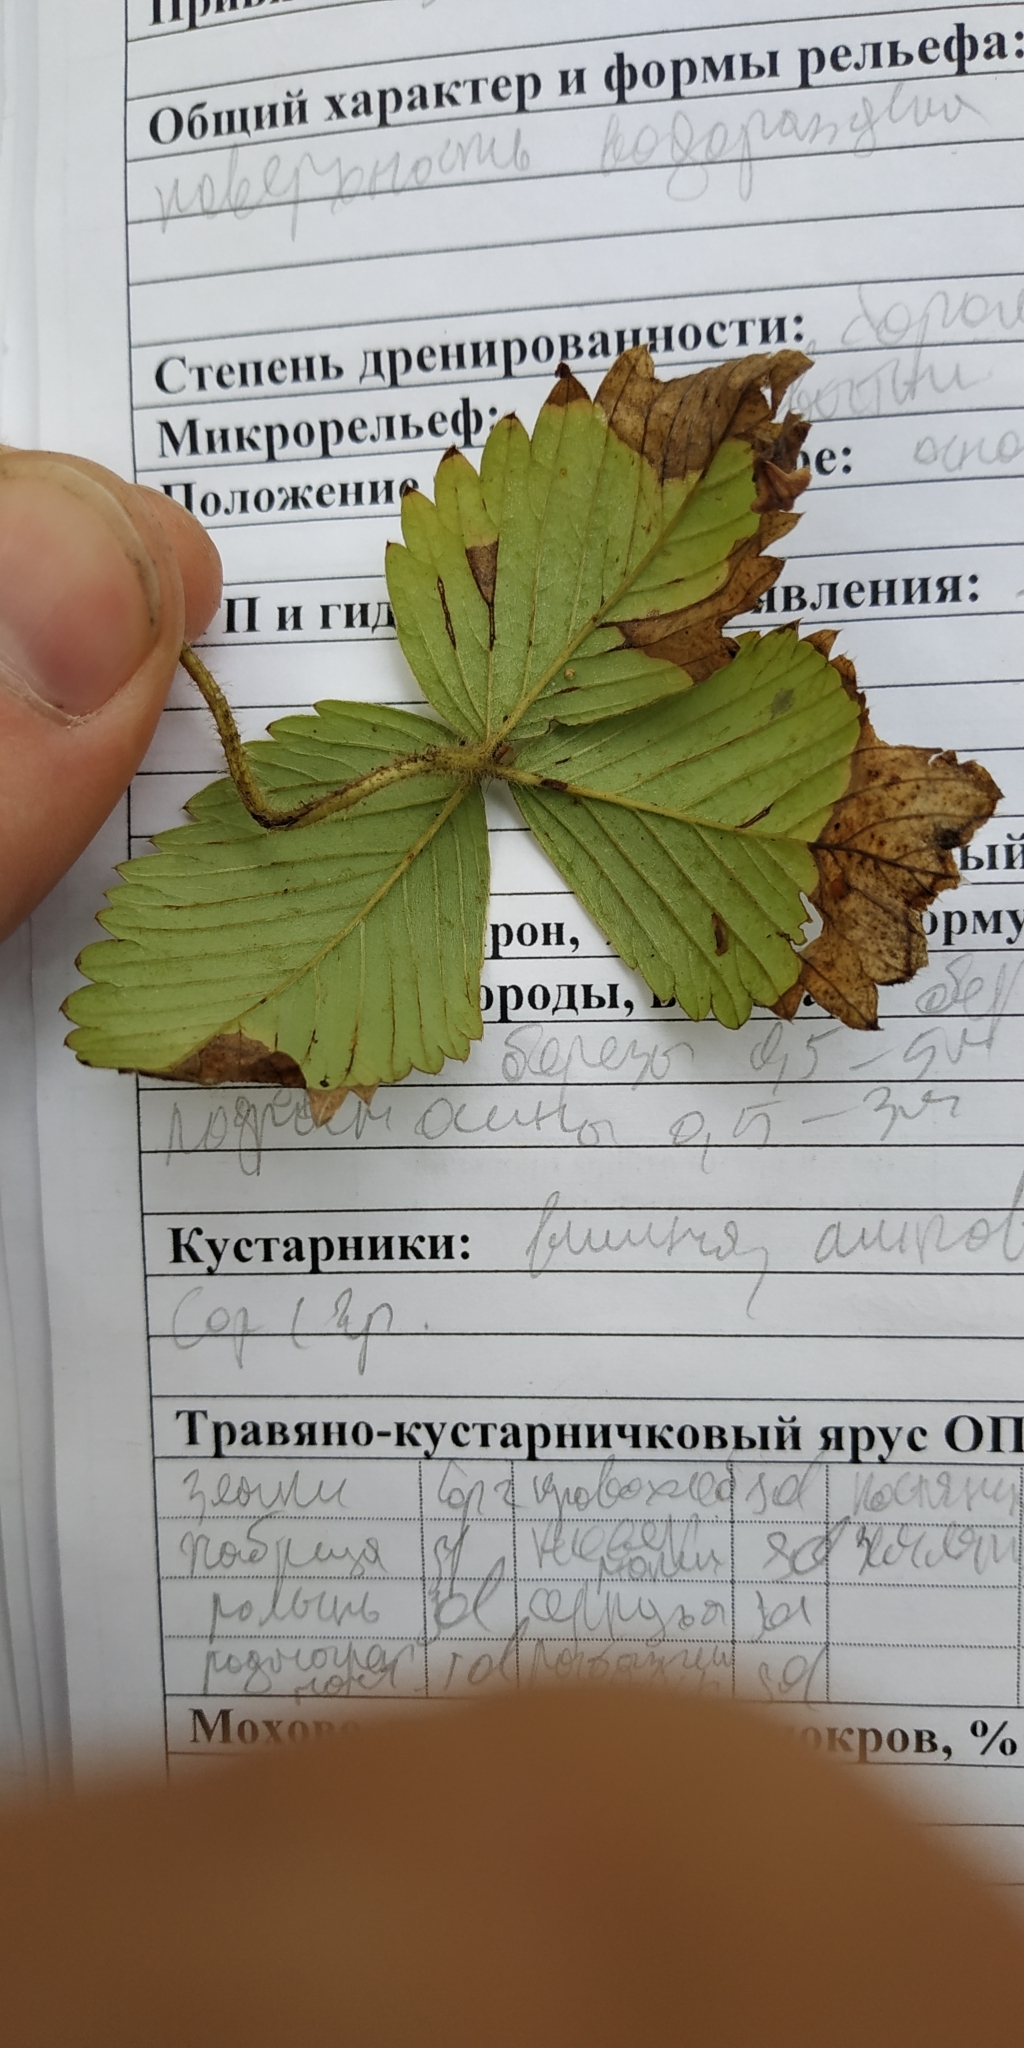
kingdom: Plantae
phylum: Tracheophyta
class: Magnoliopsida
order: Rosales
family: Rosaceae
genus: Fragaria
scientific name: Fragaria viridis
